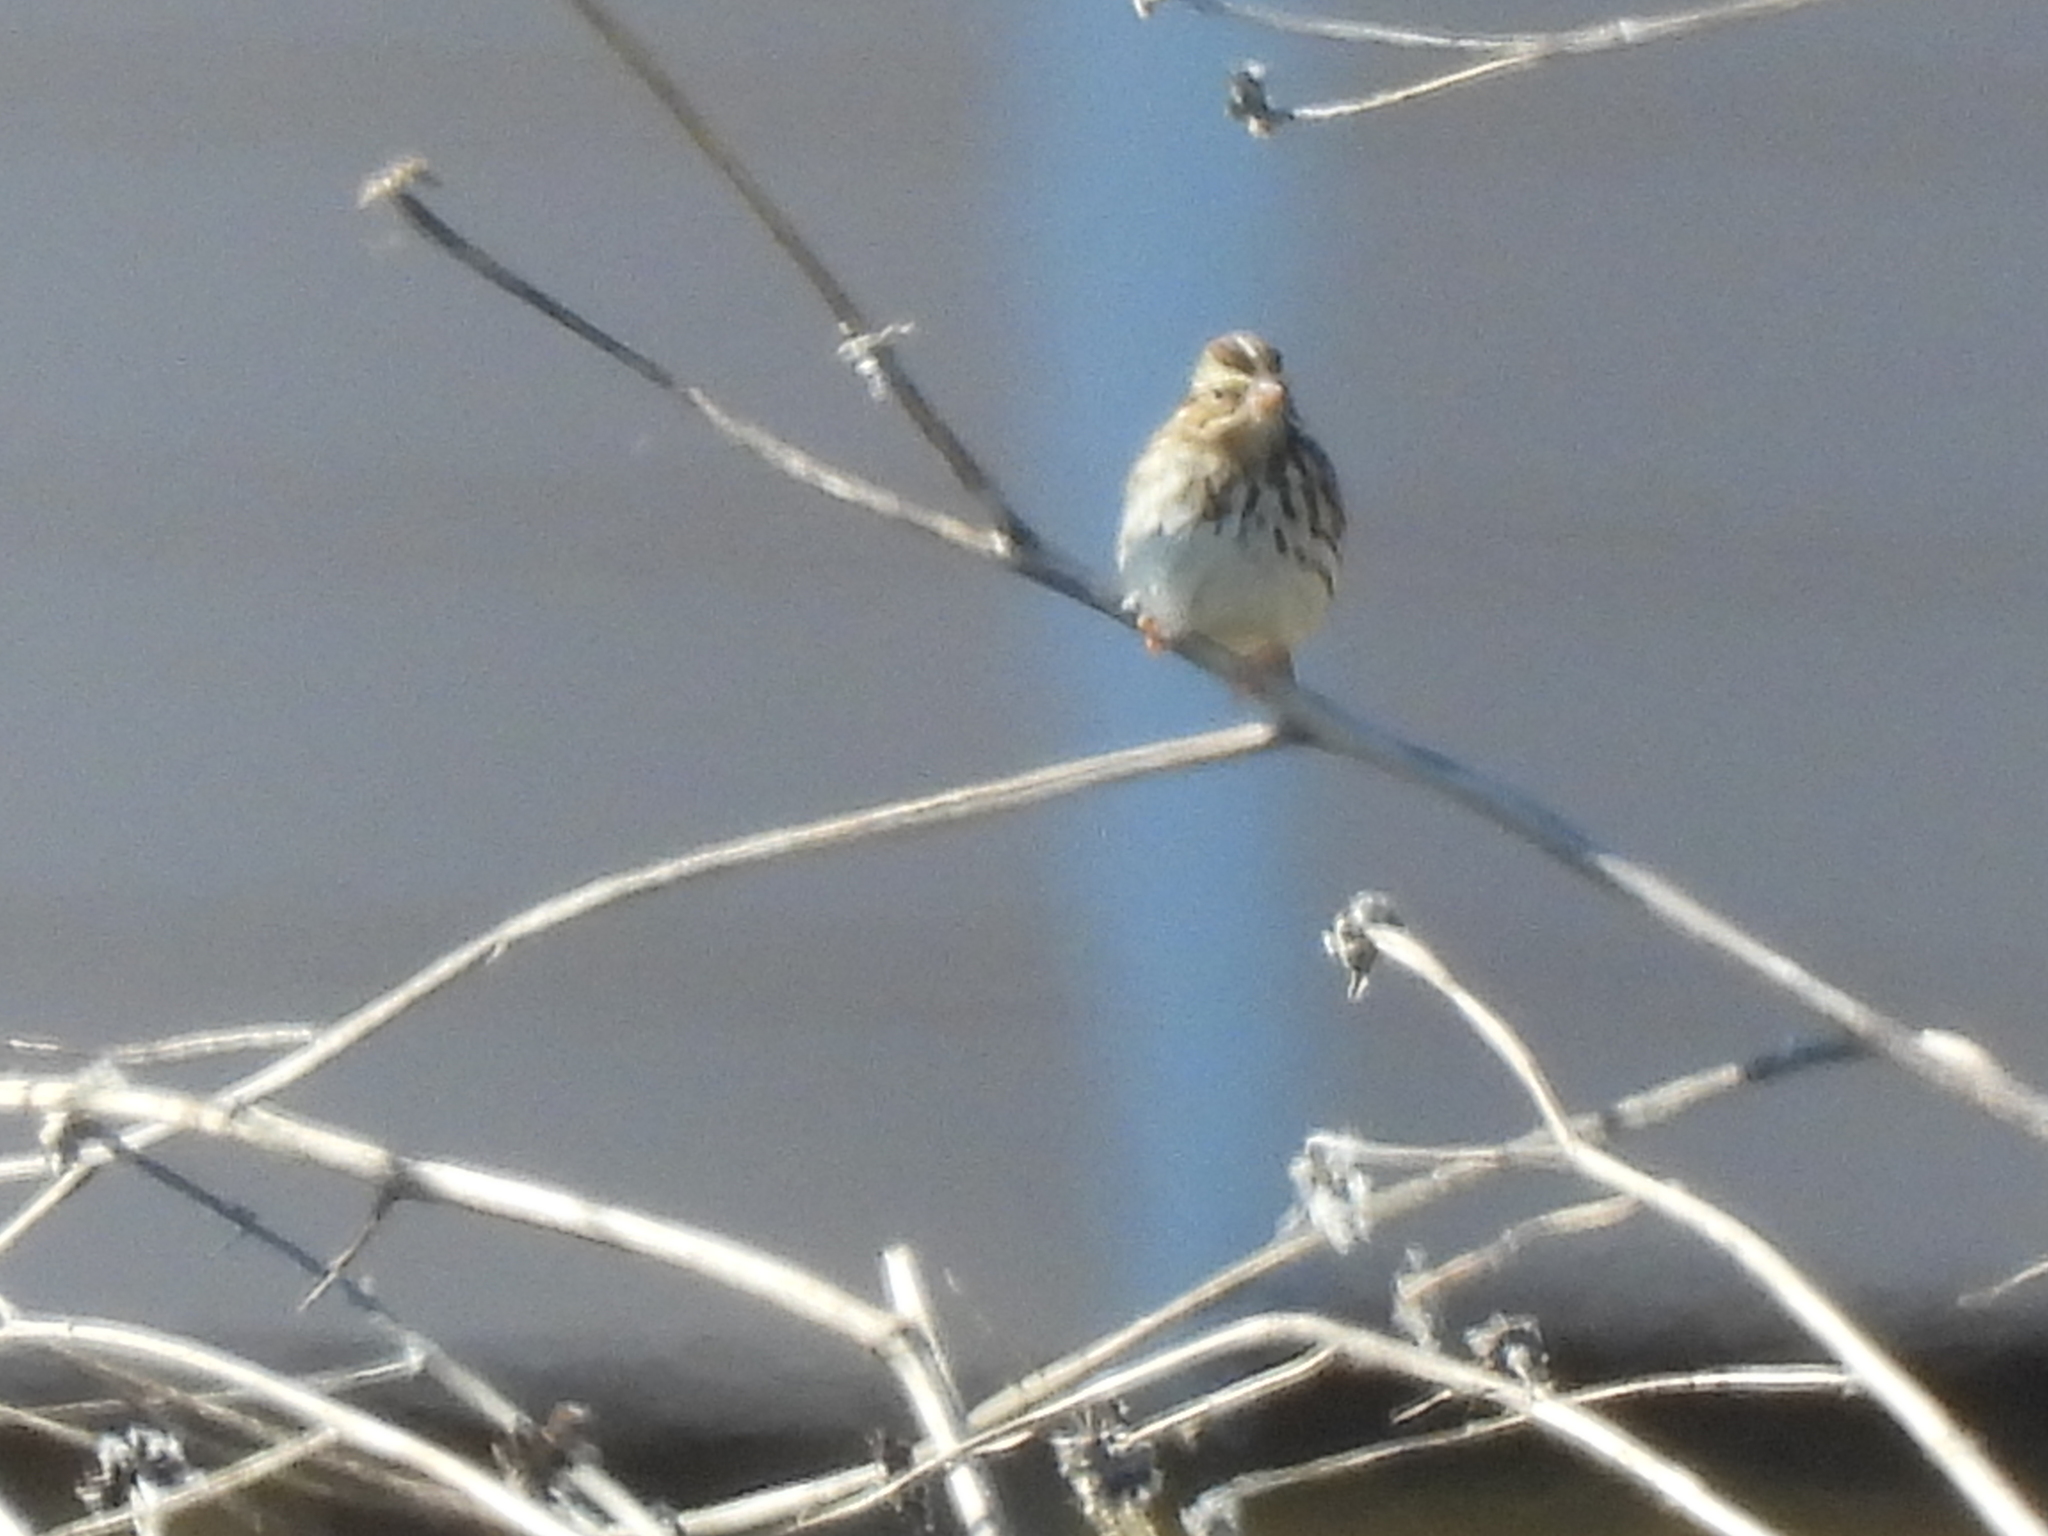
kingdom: Animalia
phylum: Chordata
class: Aves
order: Passeriformes
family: Passerellidae
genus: Passerculus
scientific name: Passerculus sandwichensis
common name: Savannah sparrow
